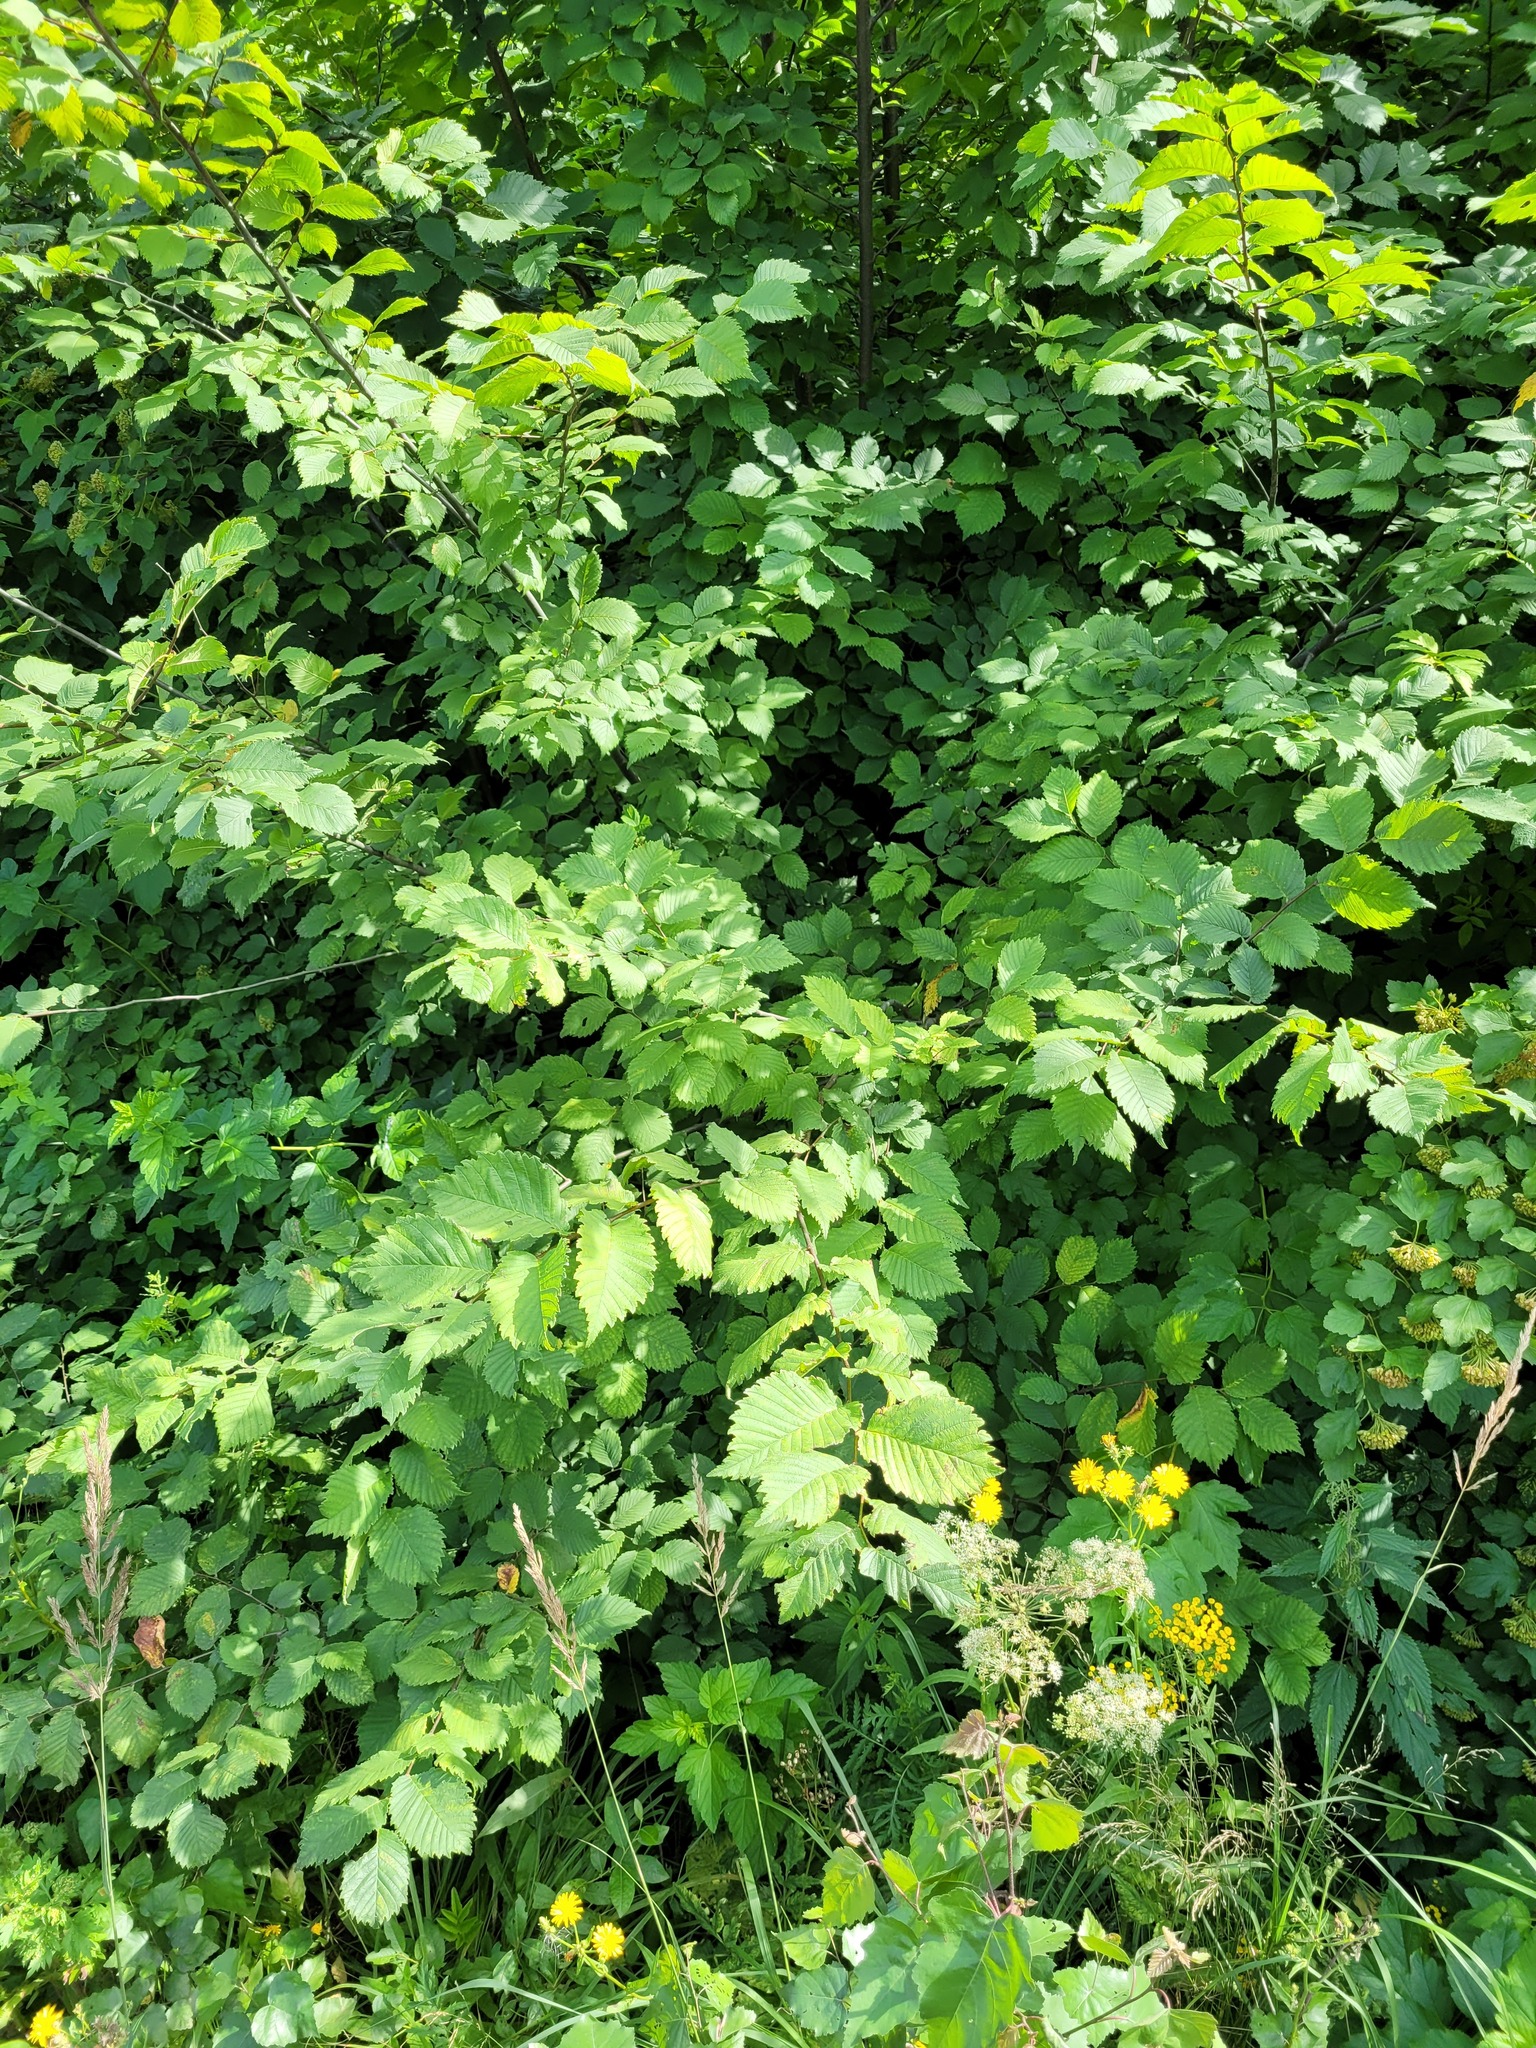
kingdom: Plantae
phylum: Tracheophyta
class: Magnoliopsida
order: Rosales
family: Ulmaceae
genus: Ulmus
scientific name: Ulmus laevis
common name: European white-elm
